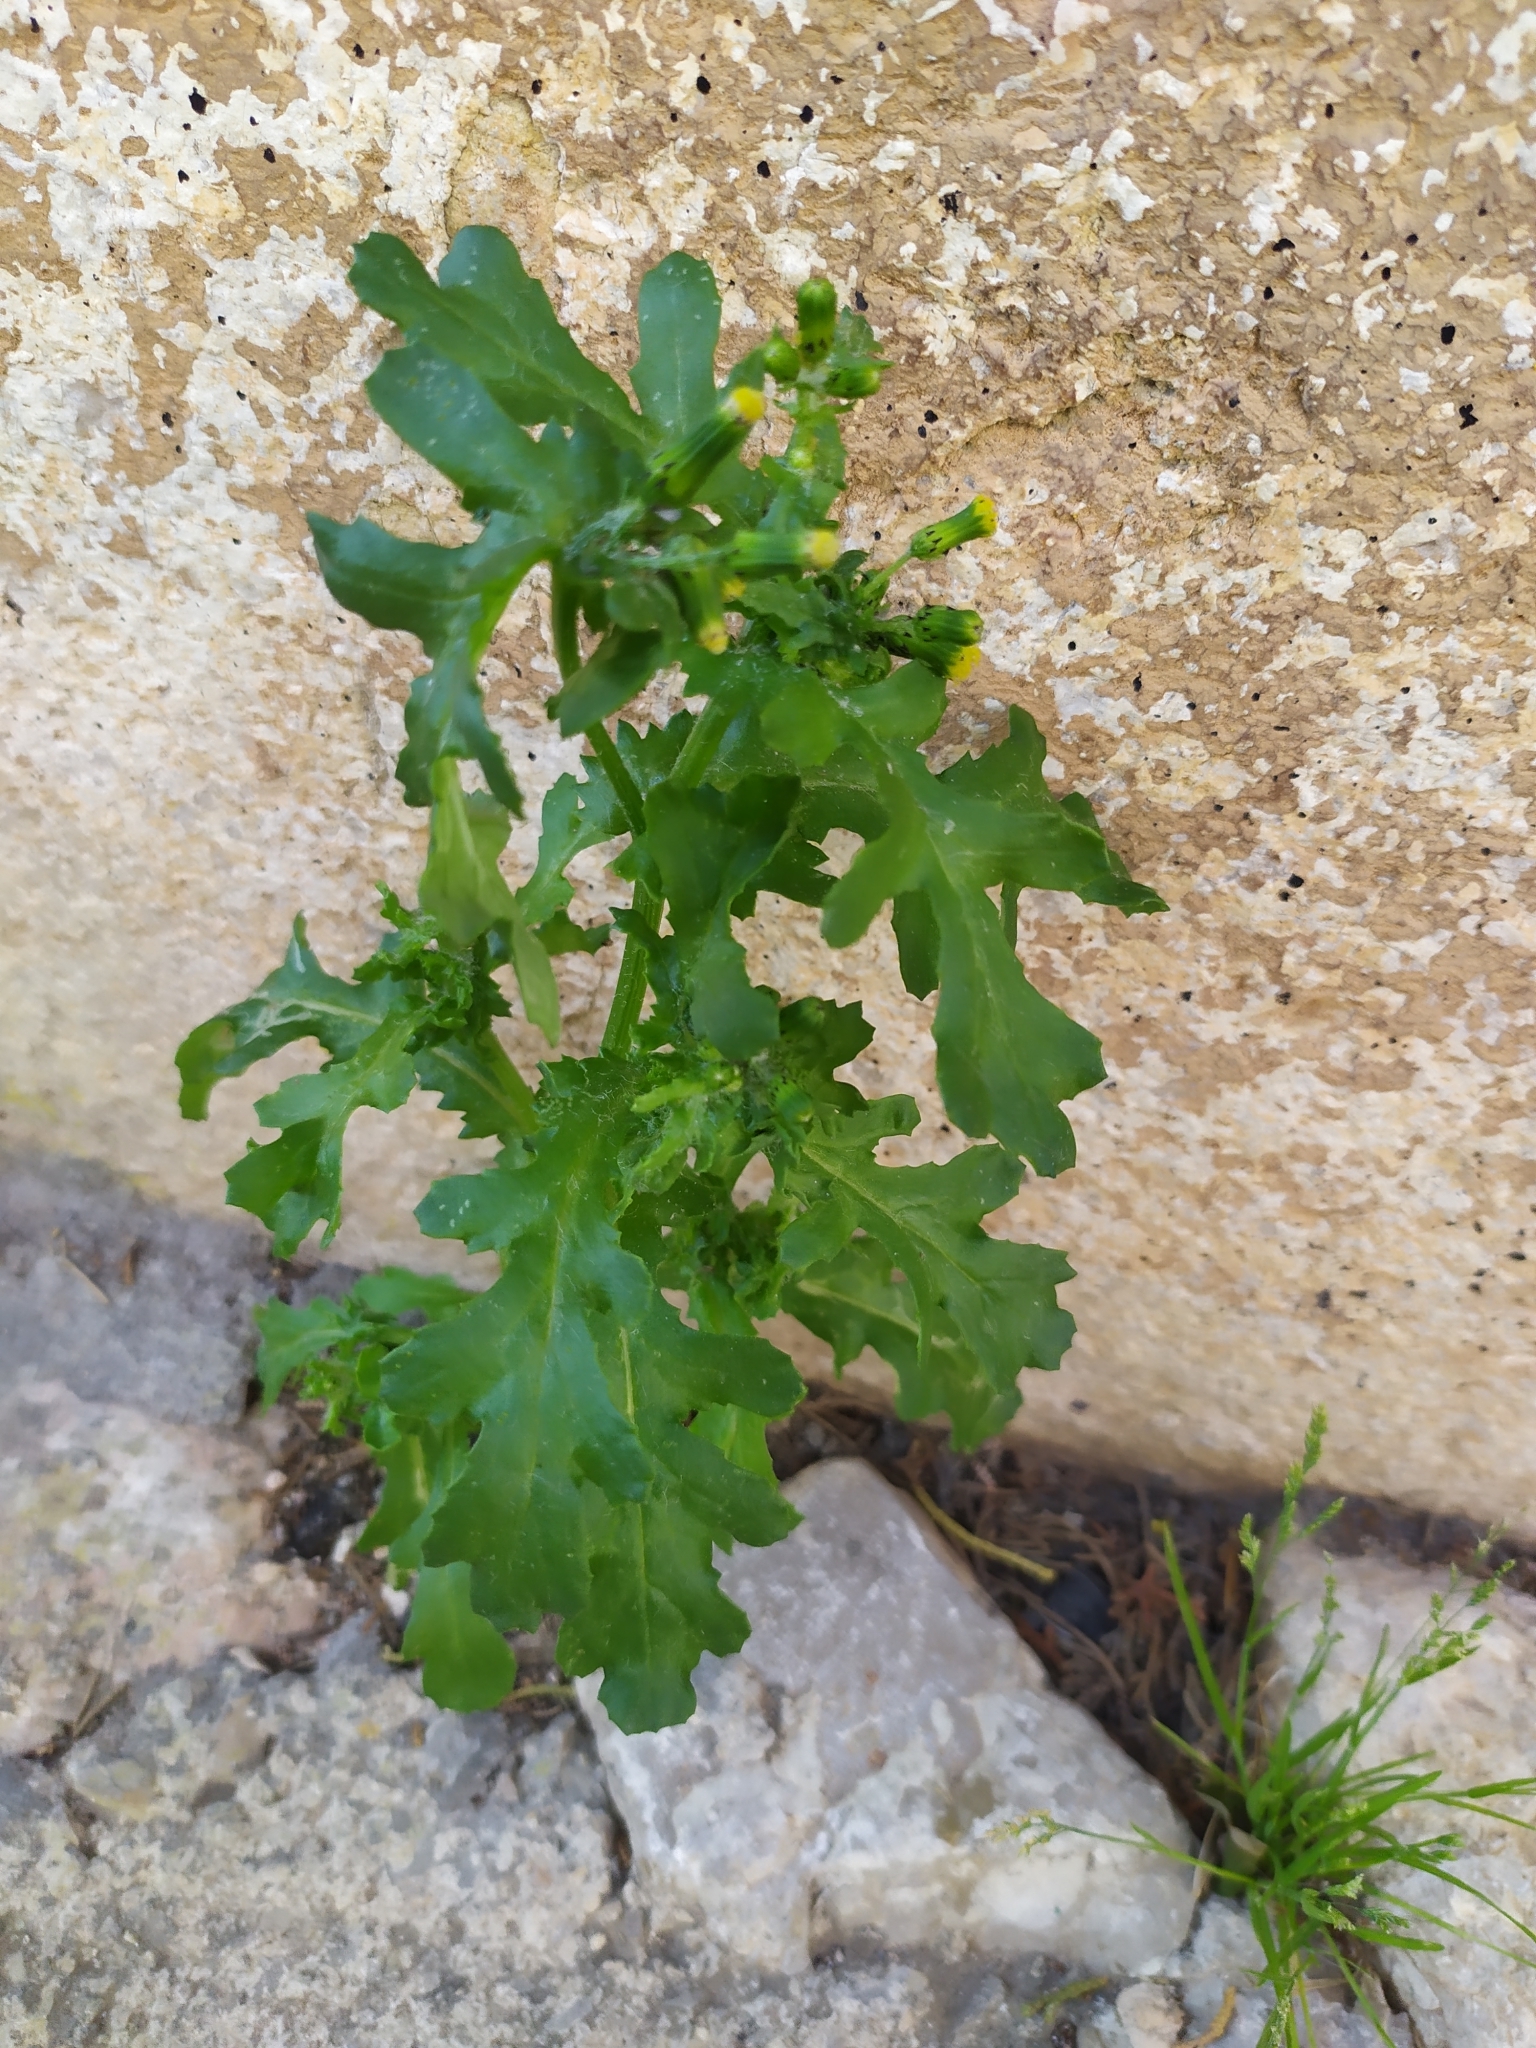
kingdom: Plantae
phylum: Tracheophyta
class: Magnoliopsida
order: Asterales
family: Asteraceae
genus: Senecio
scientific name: Senecio vulgaris
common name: Old-man-in-the-spring
